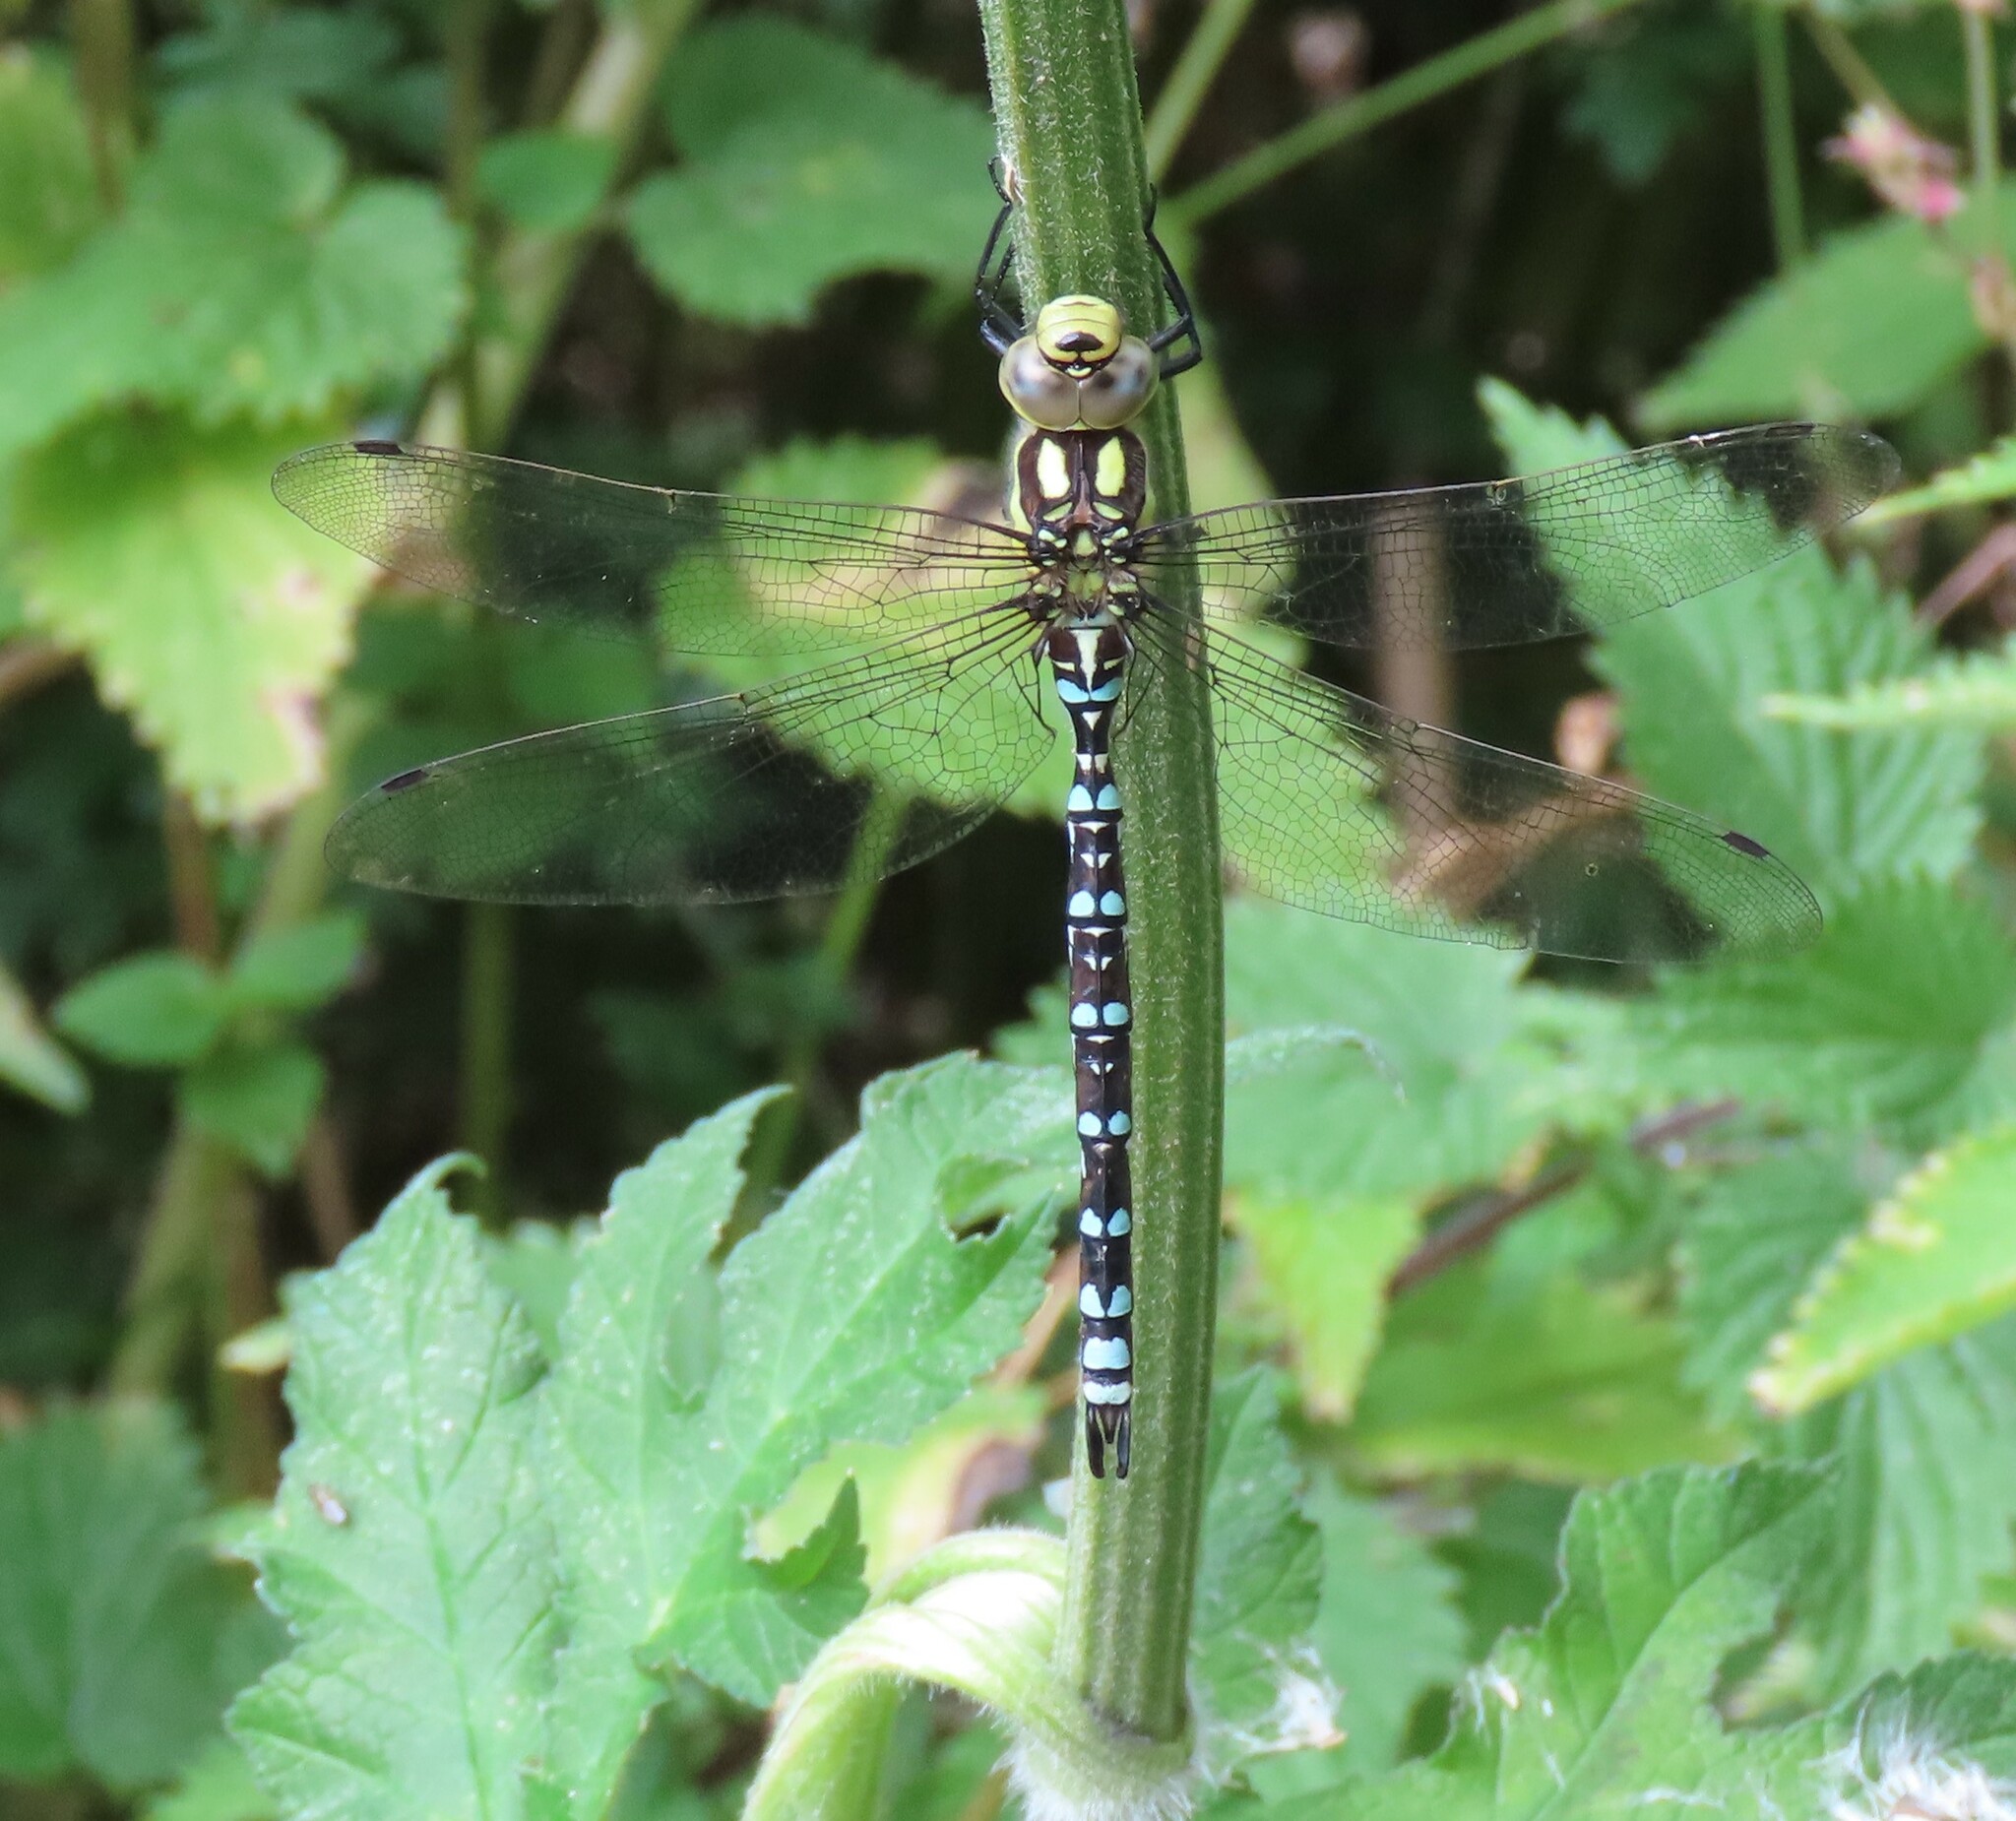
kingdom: Animalia
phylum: Arthropoda
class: Insecta
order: Odonata
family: Aeshnidae
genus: Aeshna
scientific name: Aeshna cyanea
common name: Southern hawker
